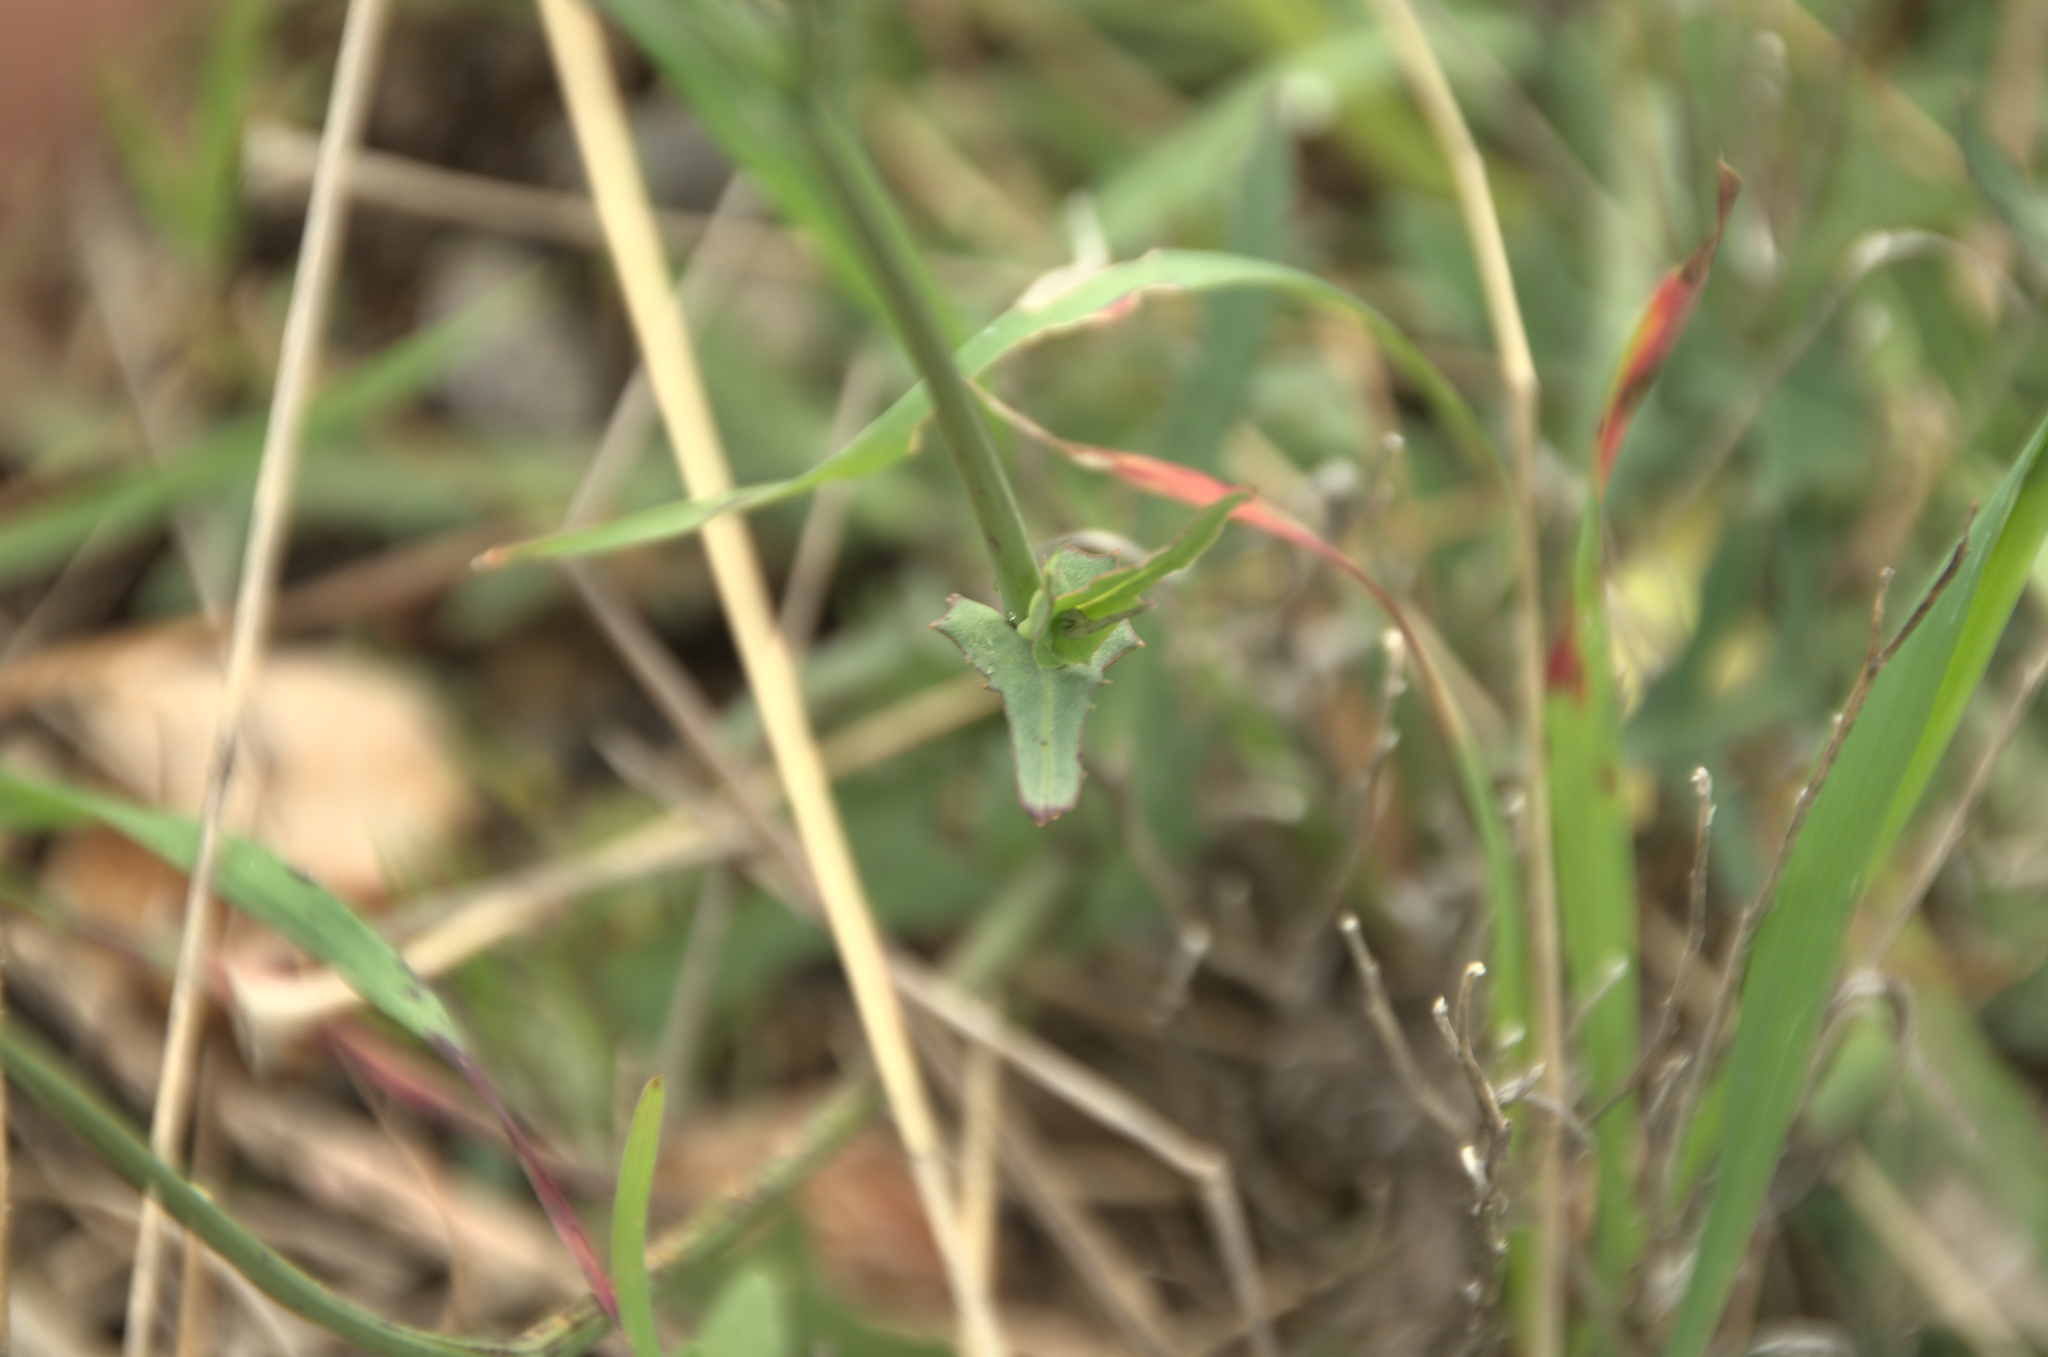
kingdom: Plantae
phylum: Tracheophyta
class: Magnoliopsida
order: Asterales
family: Asteraceae
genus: Reichardia
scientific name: Reichardia picroides
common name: Common brighteyes
